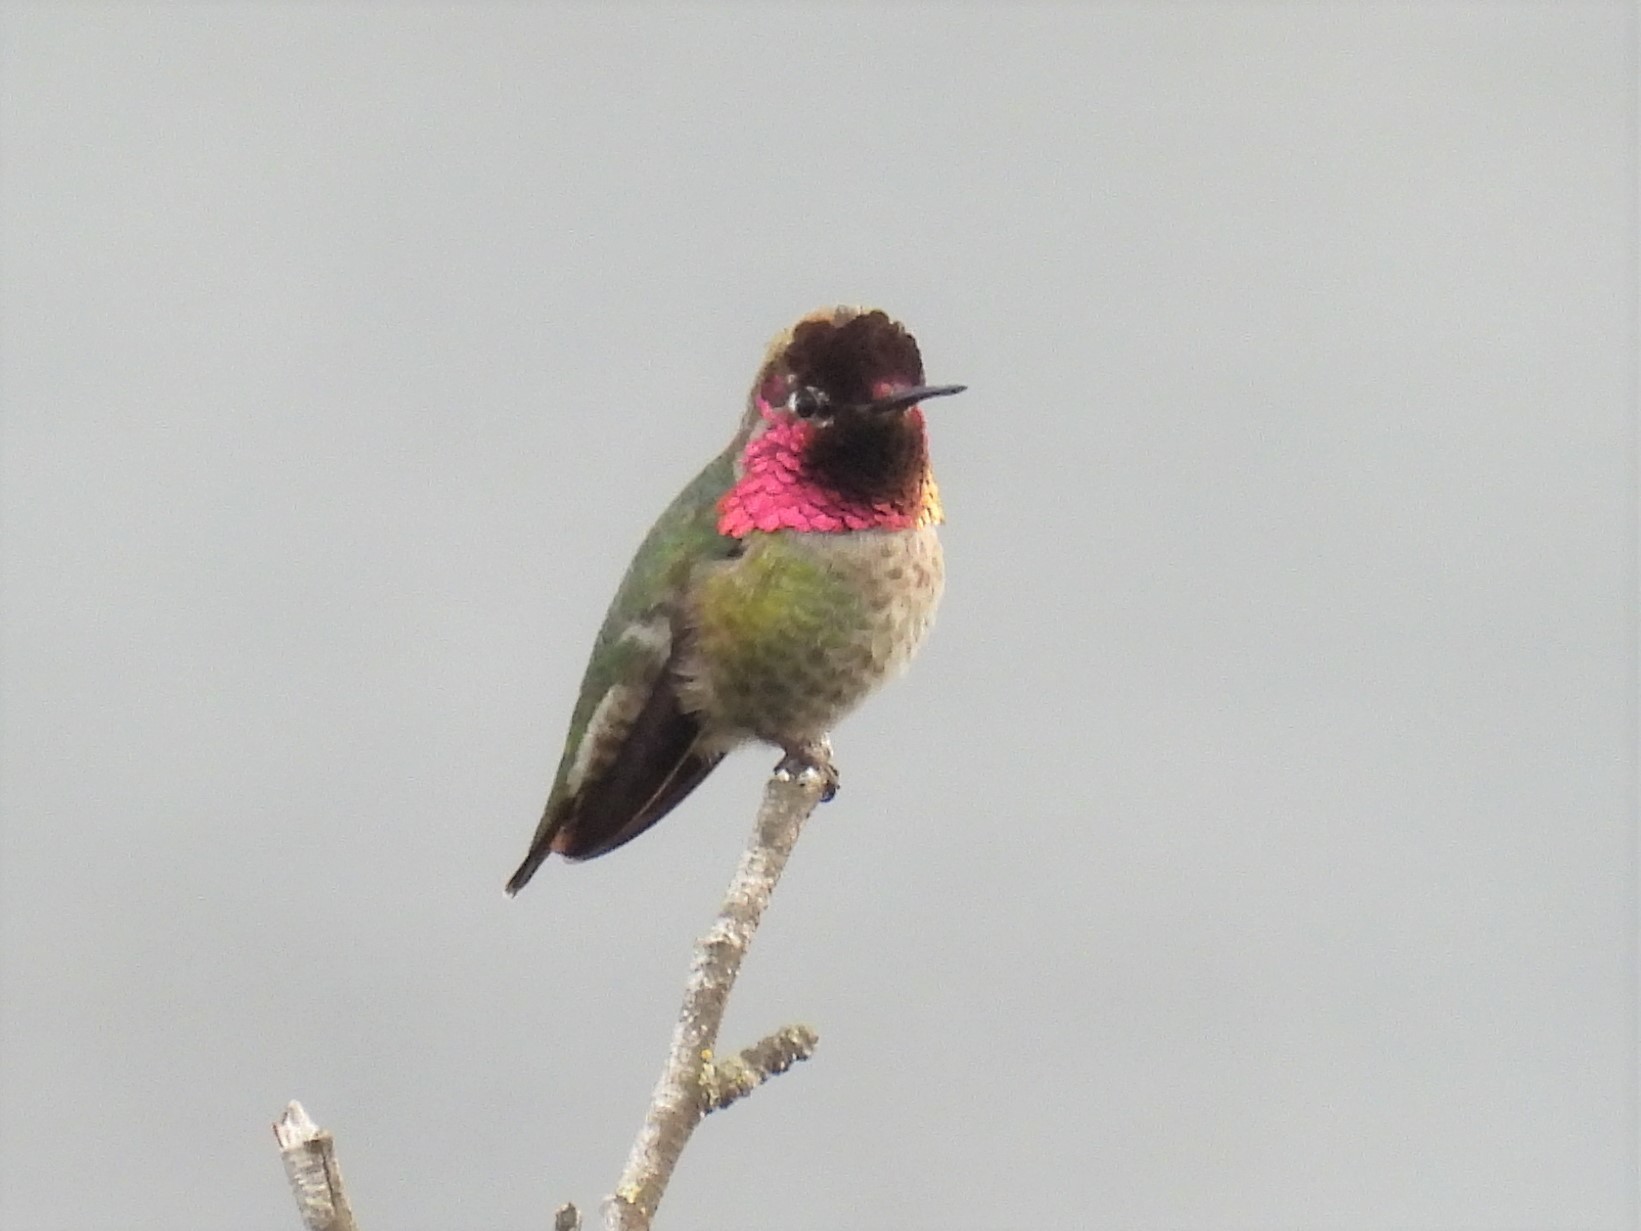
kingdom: Animalia
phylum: Chordata
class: Aves
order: Apodiformes
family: Trochilidae
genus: Calypte
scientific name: Calypte anna
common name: Anna's hummingbird
